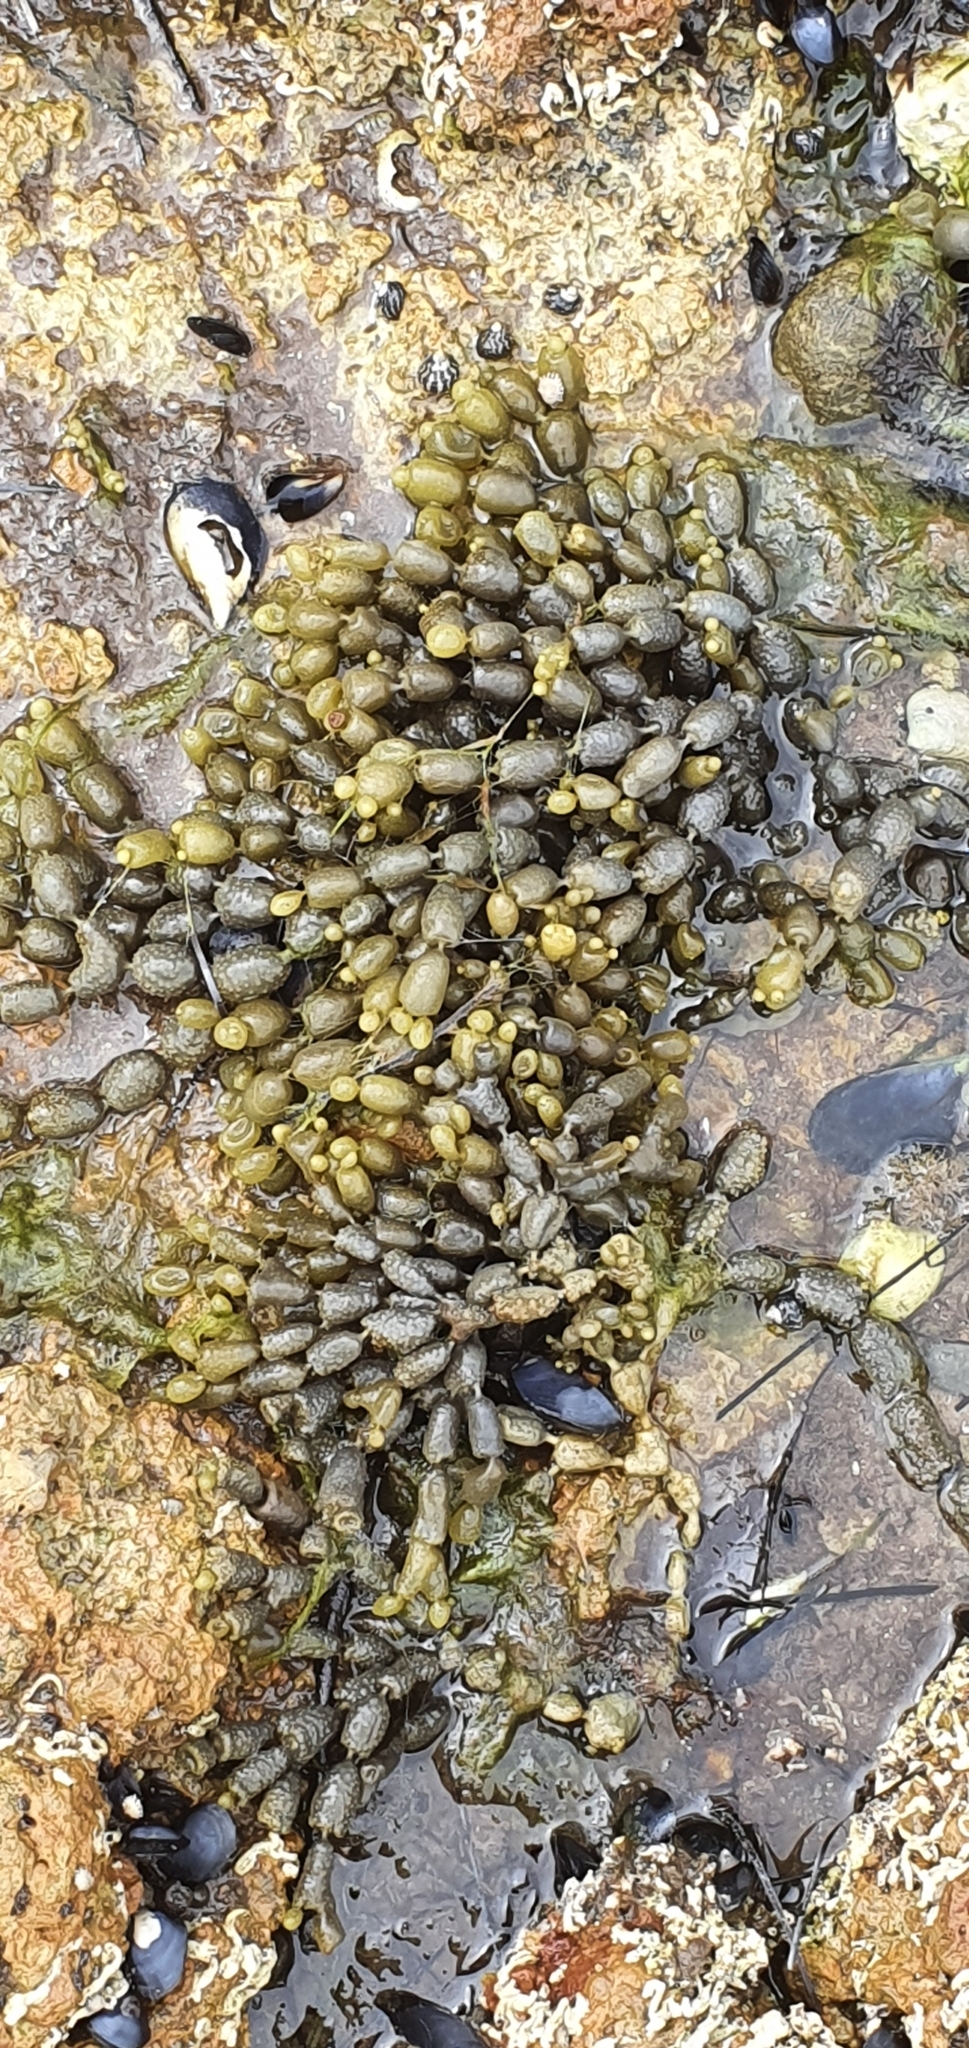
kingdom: Chromista
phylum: Ochrophyta
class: Phaeophyceae
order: Fucales
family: Hormosiraceae
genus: Hormosira
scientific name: Hormosira banksii
